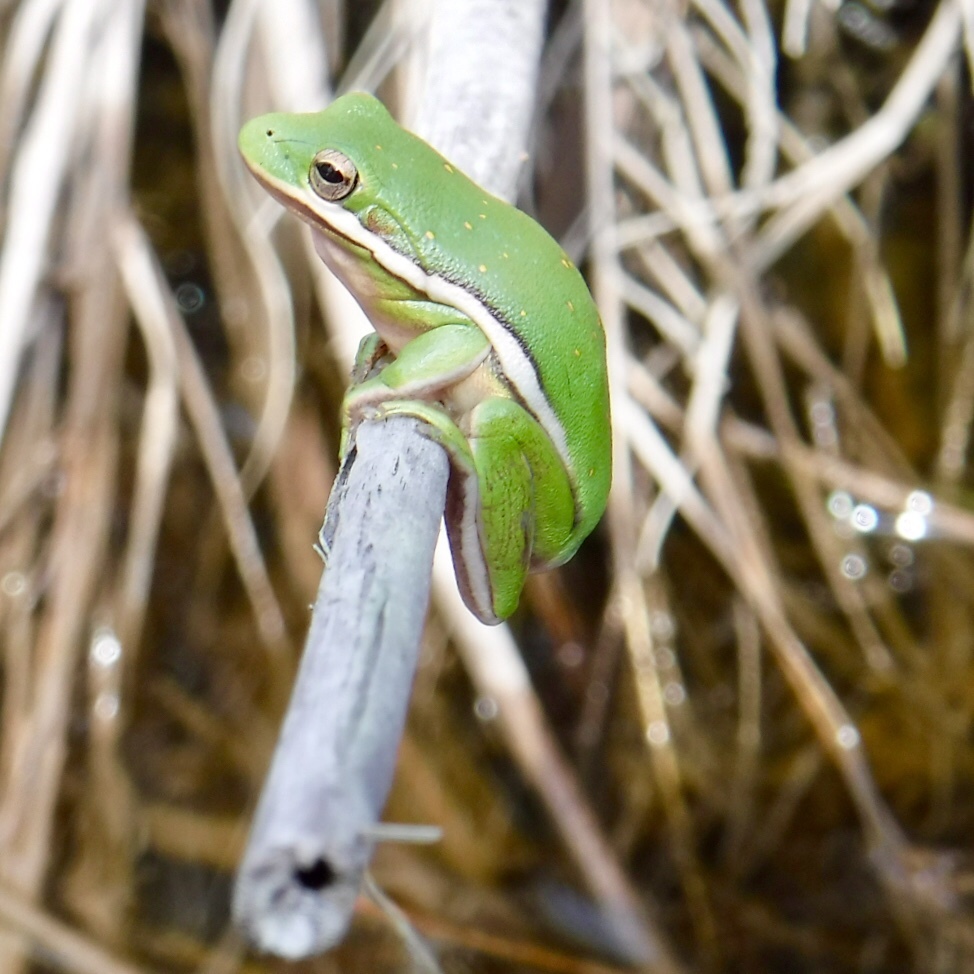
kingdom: Animalia
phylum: Chordata
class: Amphibia
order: Anura
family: Hylidae
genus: Dryophytes
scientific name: Dryophytes cinereus
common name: Green treefrog
